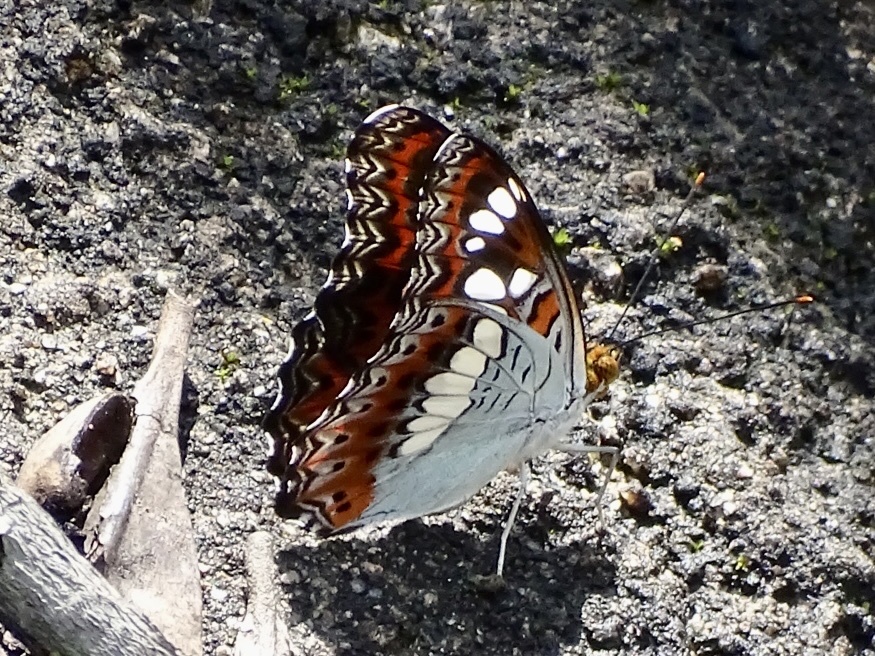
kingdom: Animalia
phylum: Arthropoda
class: Insecta
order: Lepidoptera
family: Nymphalidae
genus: Limenitis
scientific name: Limenitis Moduza procris
